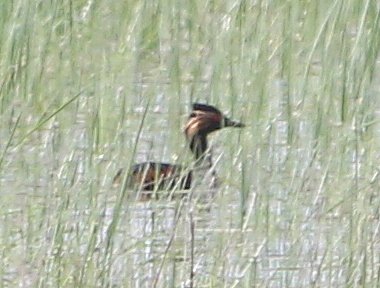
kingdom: Animalia
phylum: Chordata
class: Aves
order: Podicipediformes
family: Podicipedidae
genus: Podiceps
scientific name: Podiceps nigricollis
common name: Black-necked grebe
